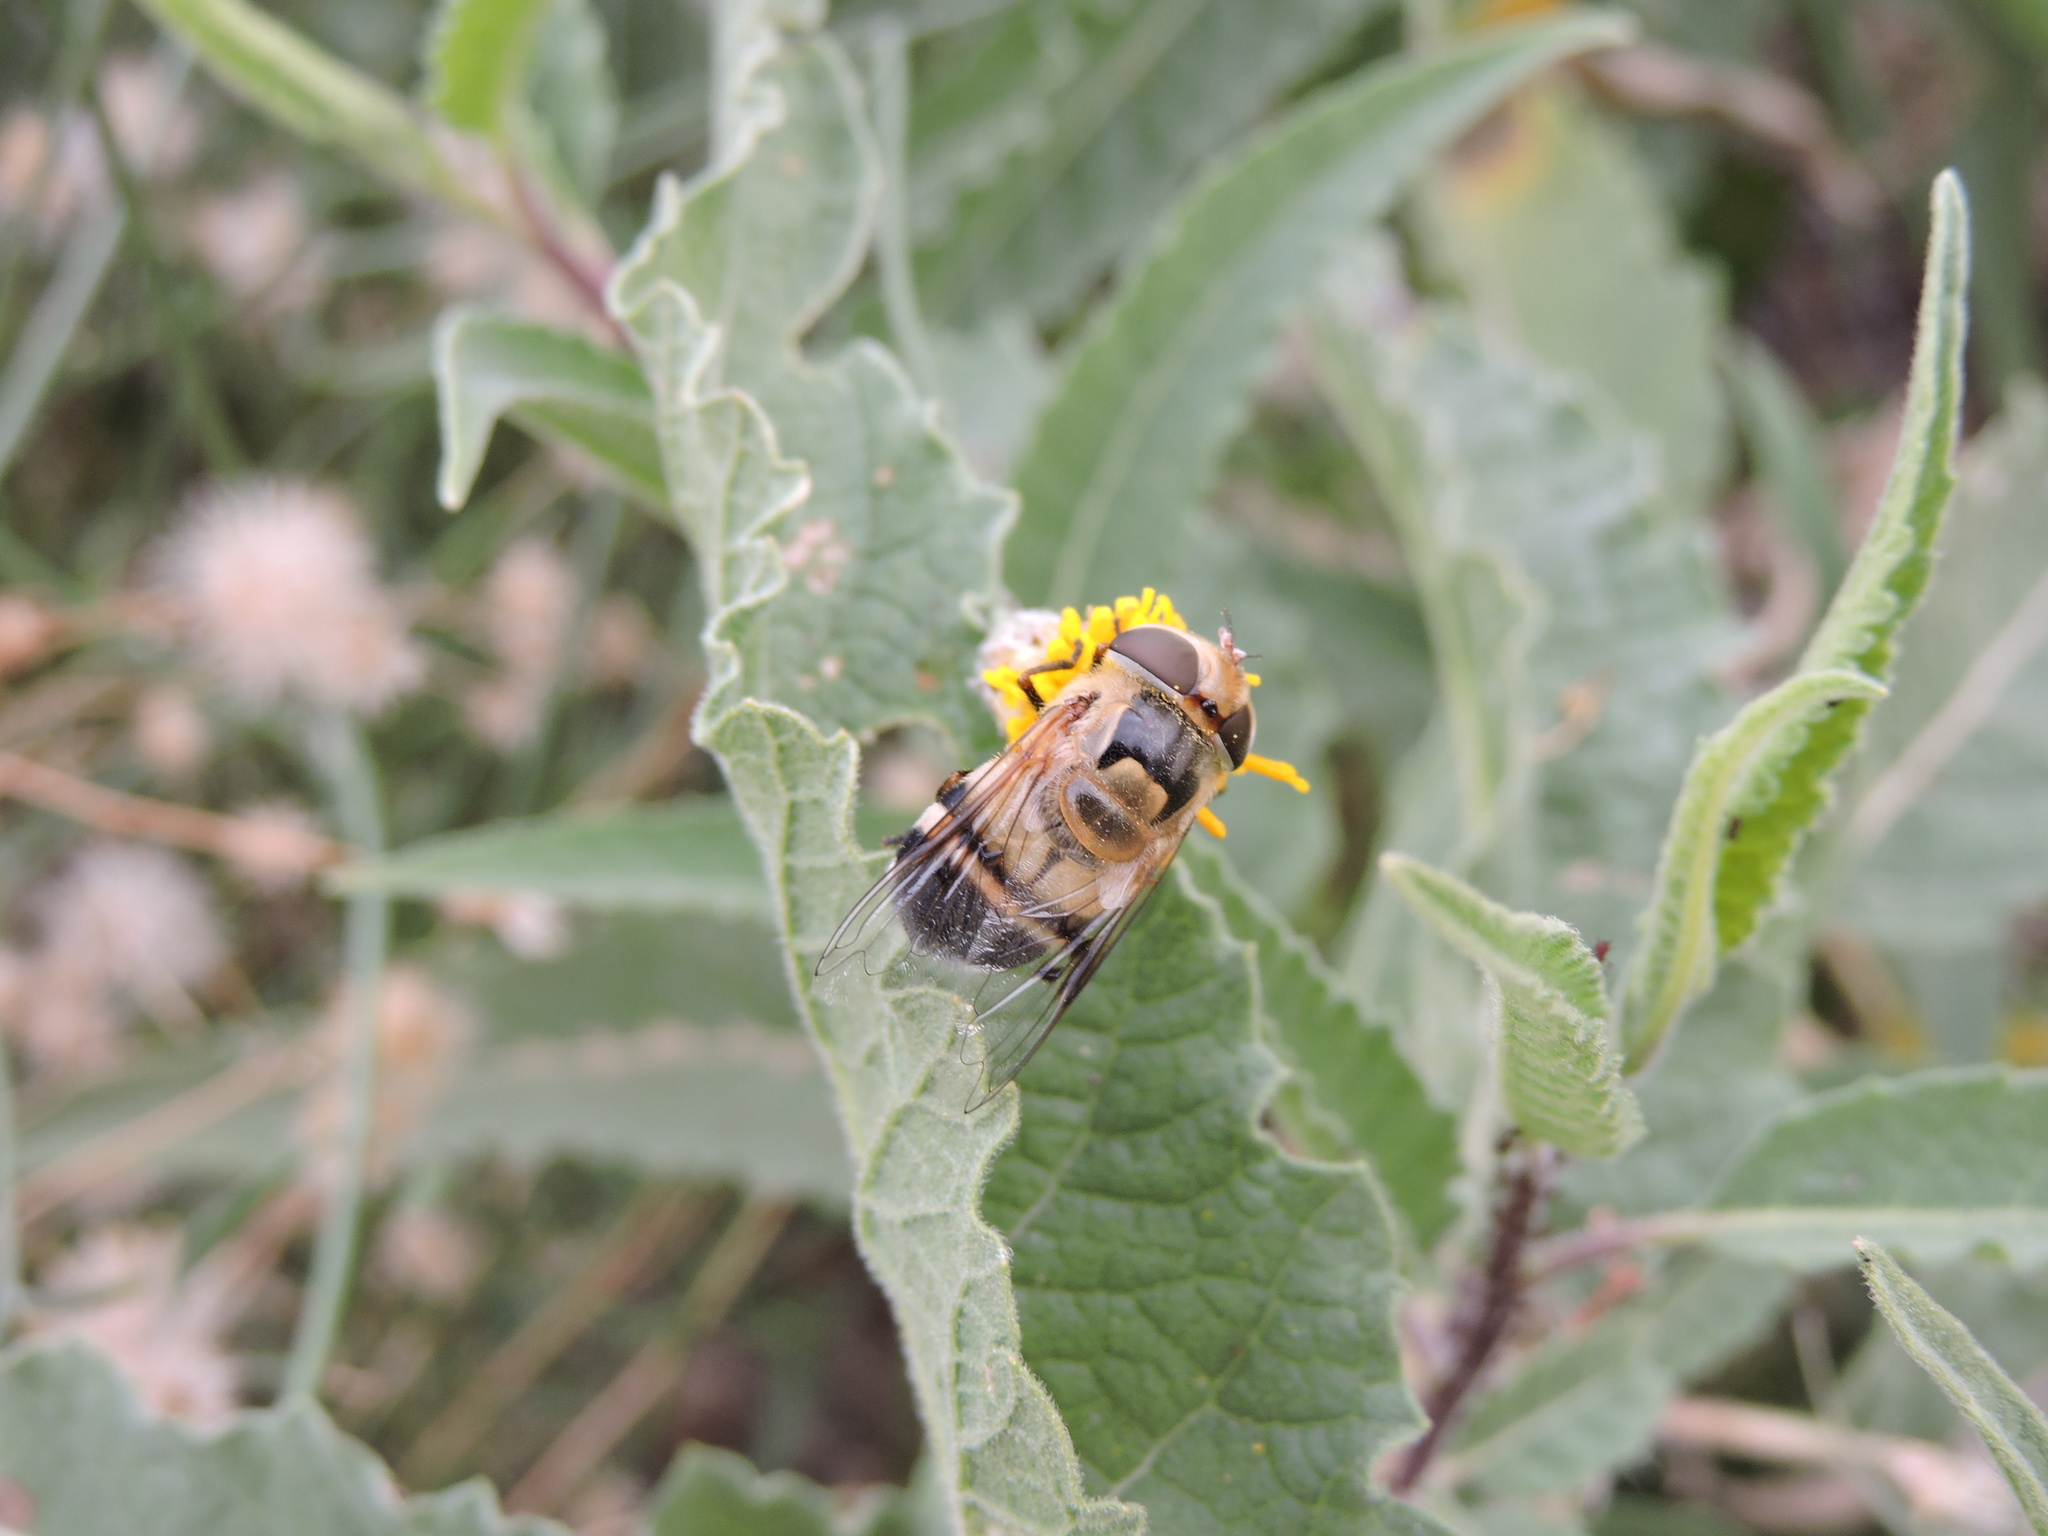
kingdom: Animalia
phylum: Arthropoda
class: Insecta
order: Diptera
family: Syrphidae
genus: Copestylum
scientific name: Copestylum apiciferum
